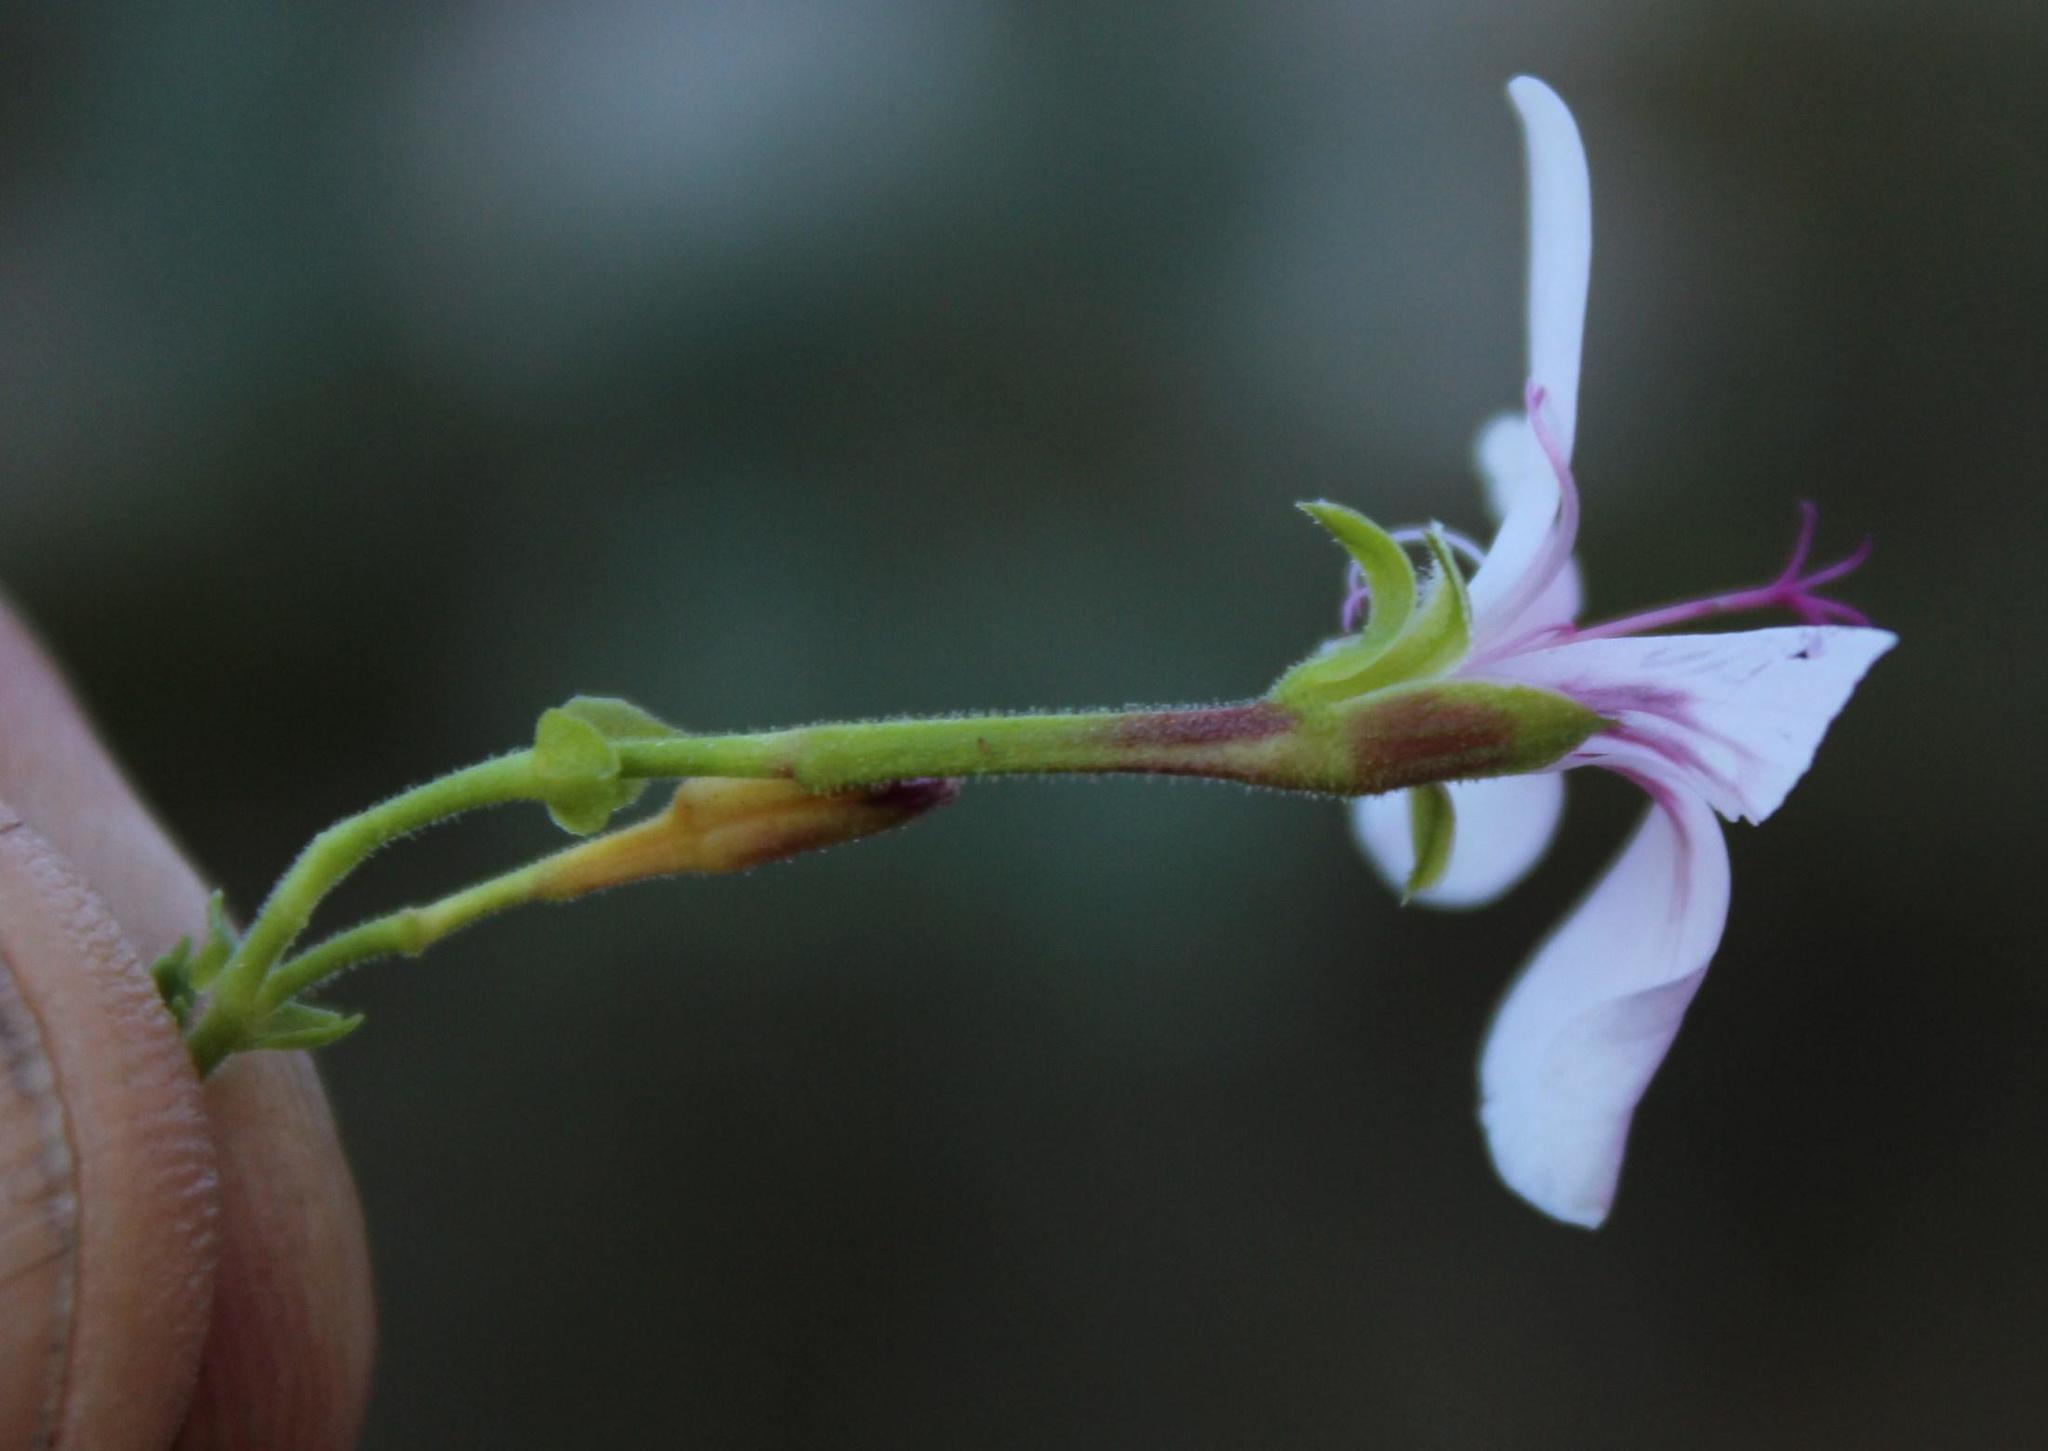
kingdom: Plantae
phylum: Tracheophyta
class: Magnoliopsida
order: Geraniales
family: Geraniaceae
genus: Pelargonium
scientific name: Pelargonium crispum
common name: Crisped-leaf pelargonium
